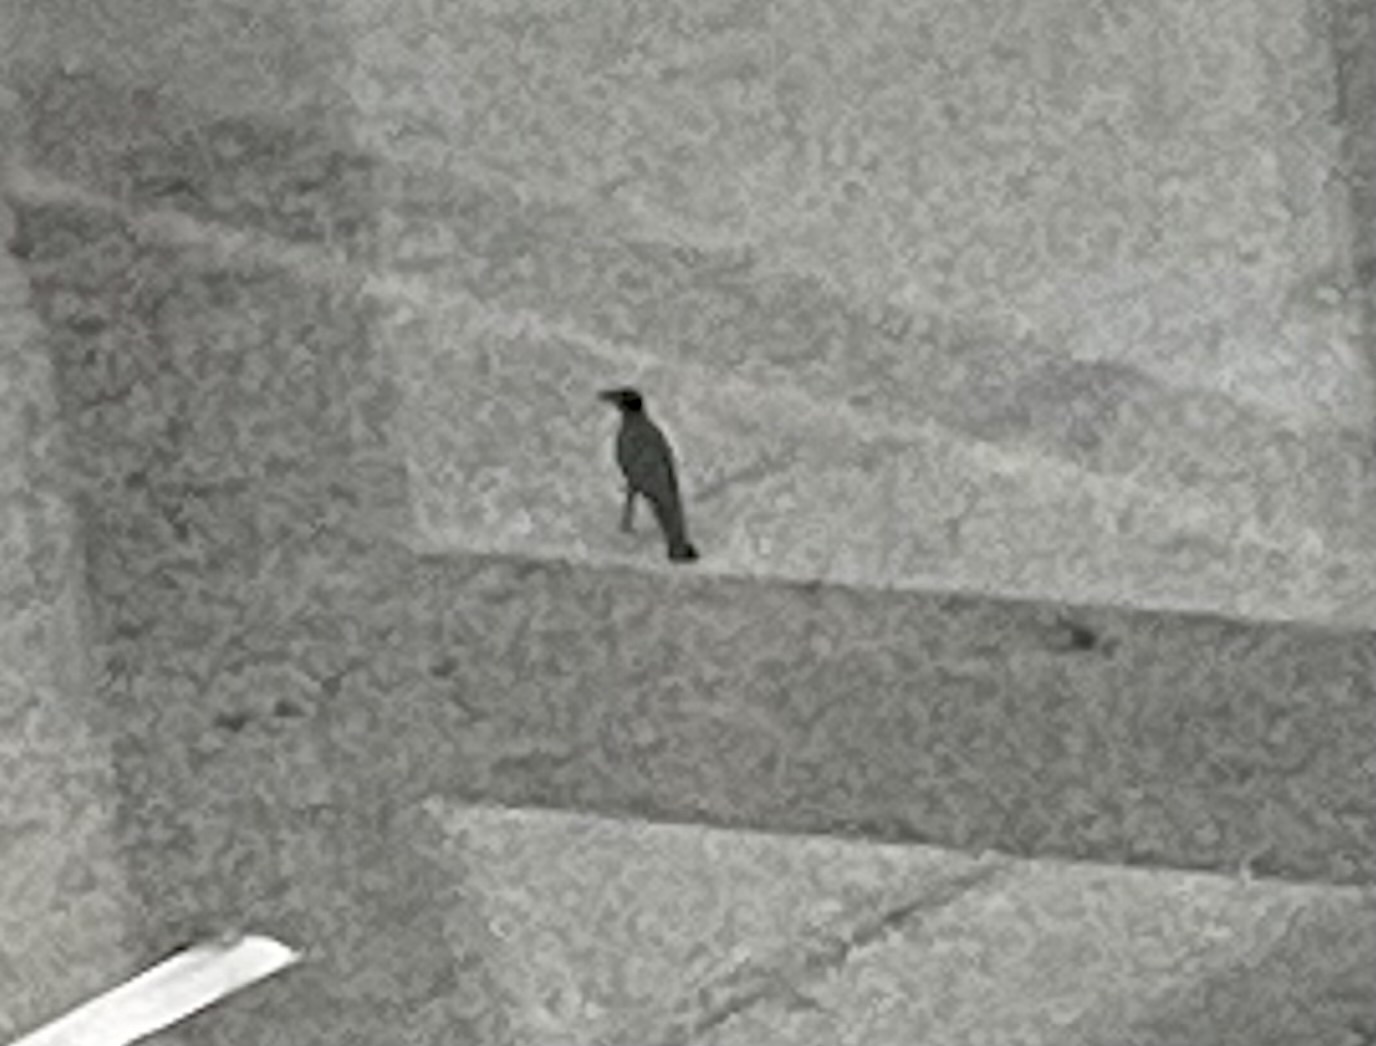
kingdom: Animalia
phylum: Chordata
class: Aves
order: Passeriformes
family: Corvidae
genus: Corvus
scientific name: Corvus
